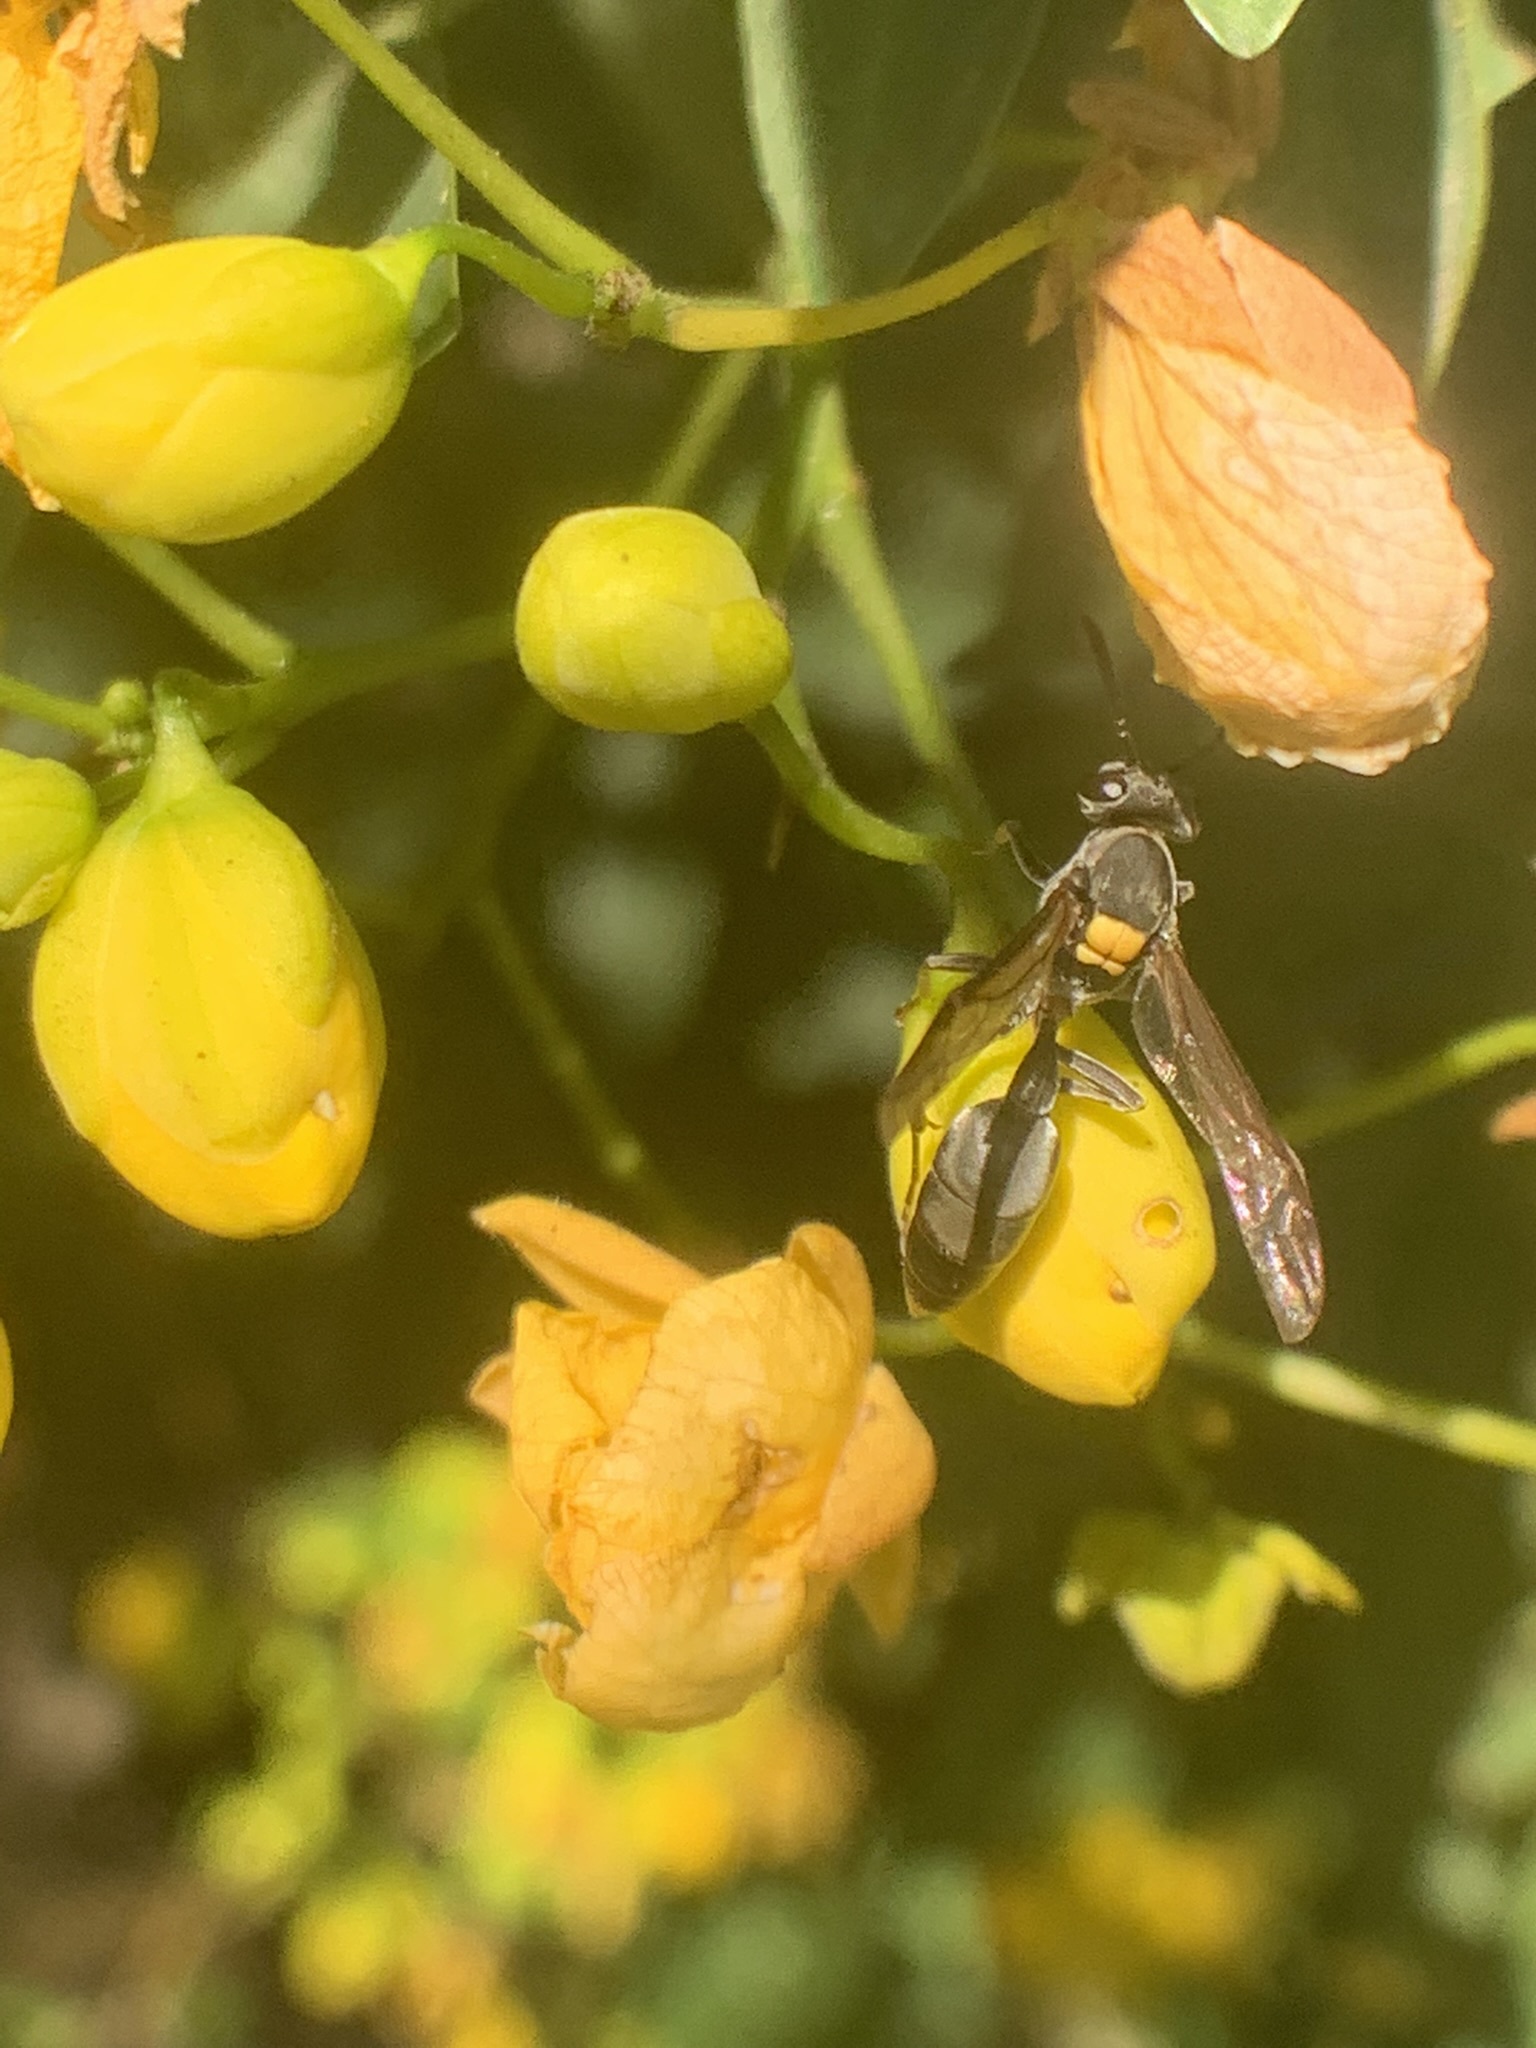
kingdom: Animalia
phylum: Arthropoda
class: Insecta
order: Hymenoptera
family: Eumenidae
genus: Polybia
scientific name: Polybia scutellaris
